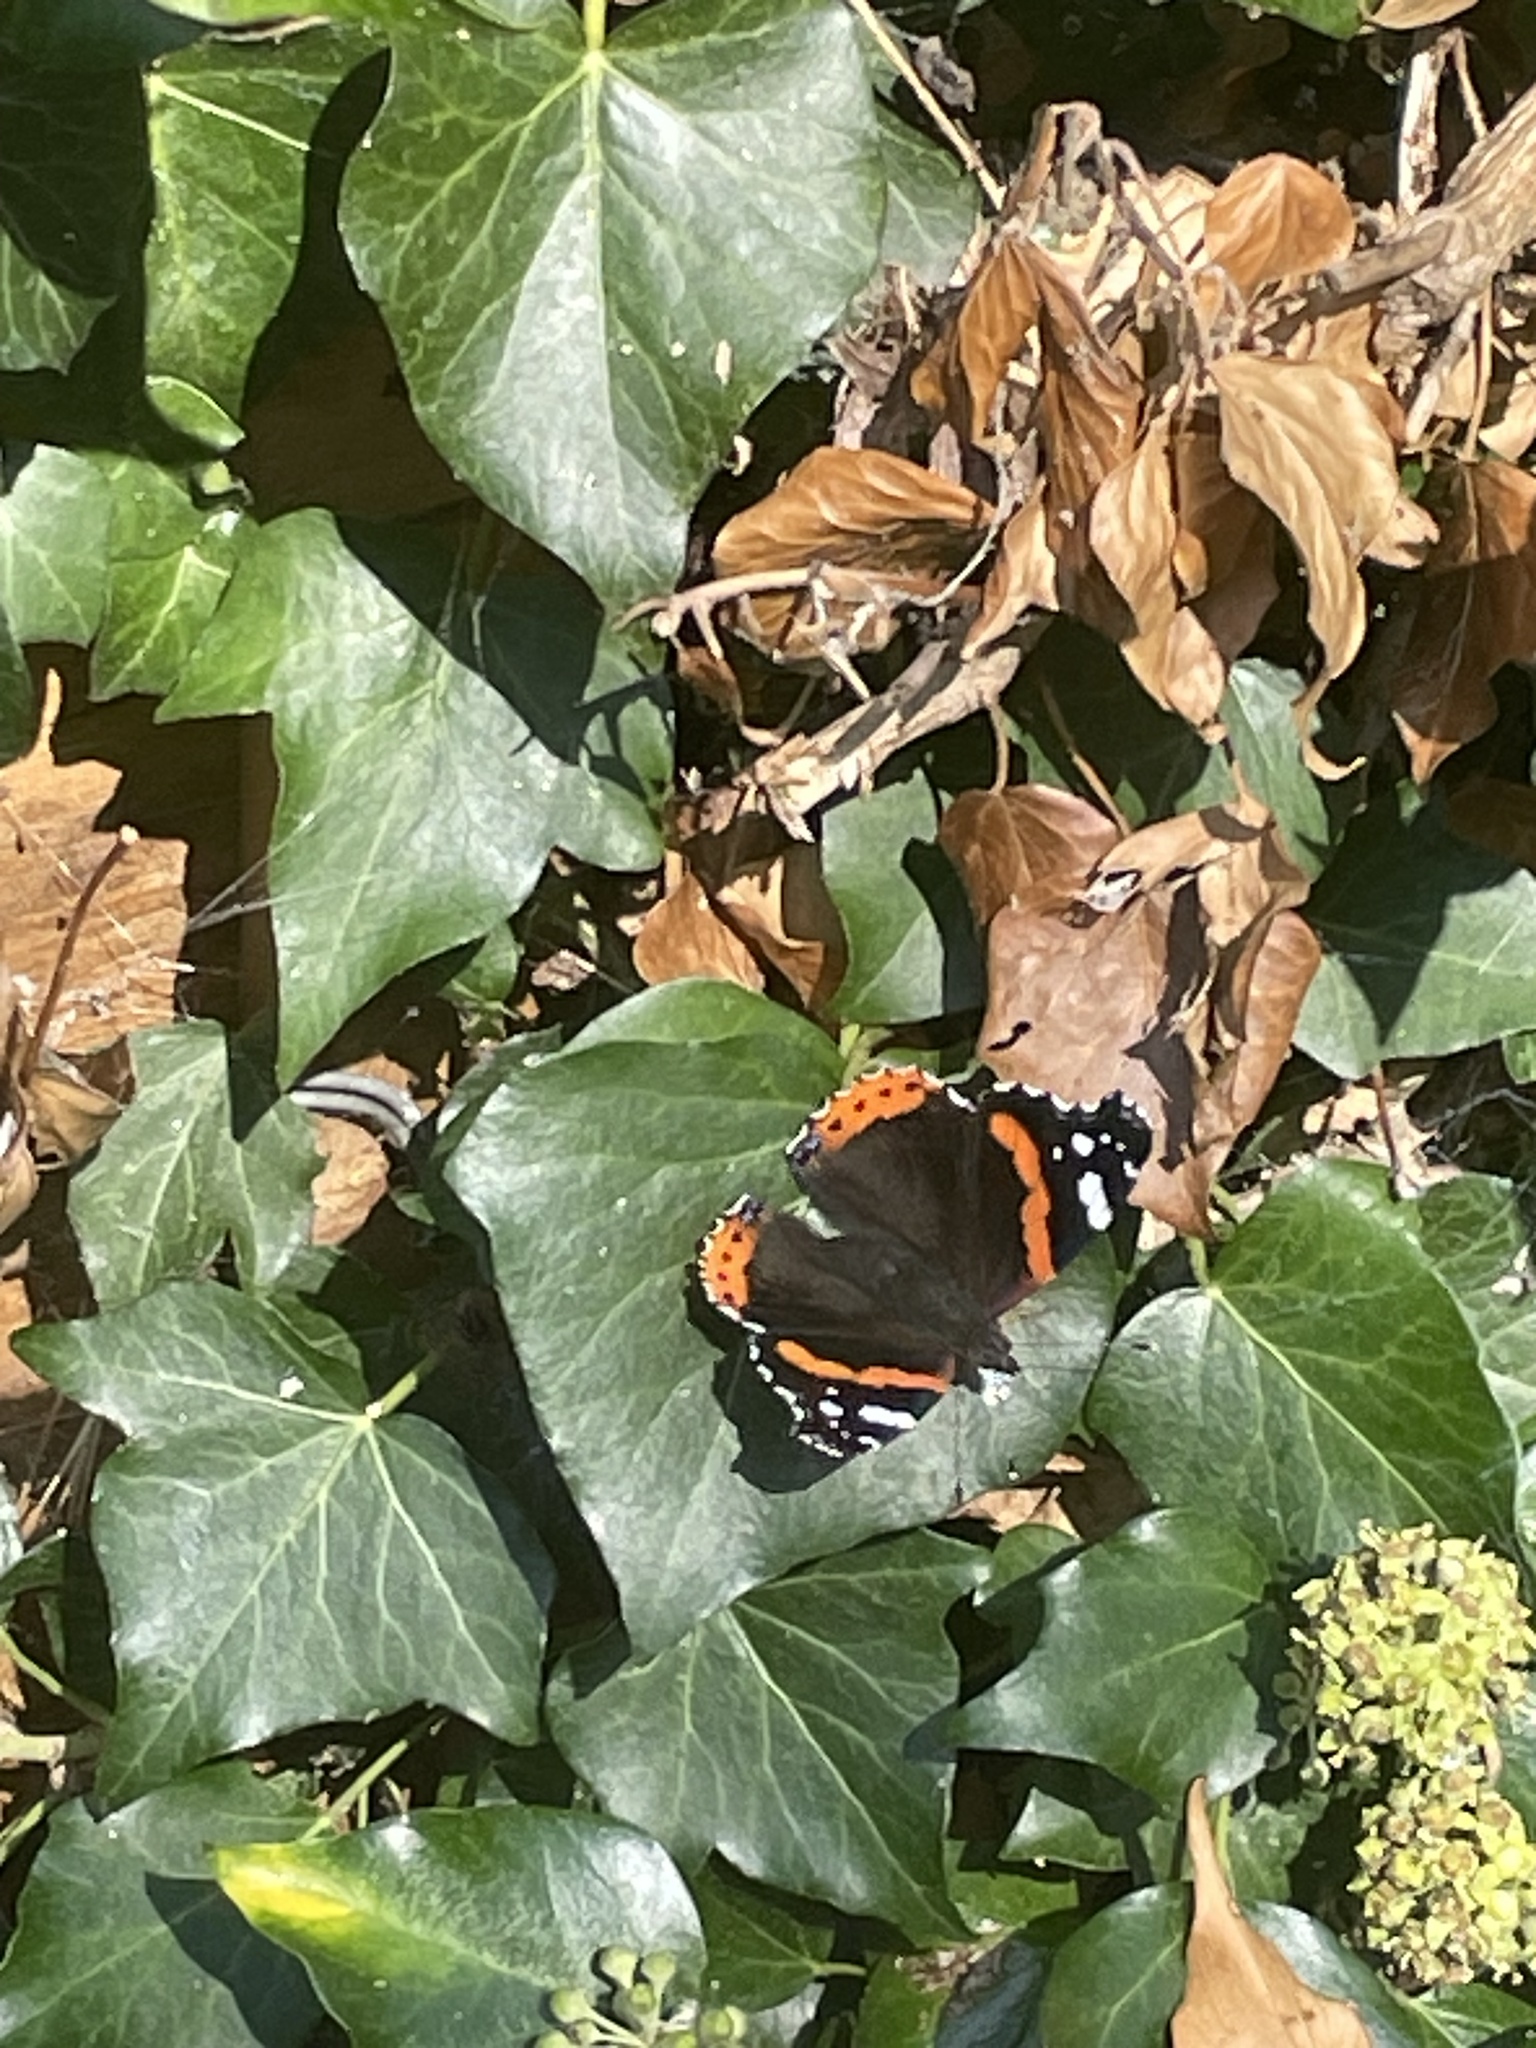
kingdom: Animalia
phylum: Arthropoda
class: Insecta
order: Lepidoptera
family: Nymphalidae
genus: Vanessa
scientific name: Vanessa atalanta
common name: Red admiral
